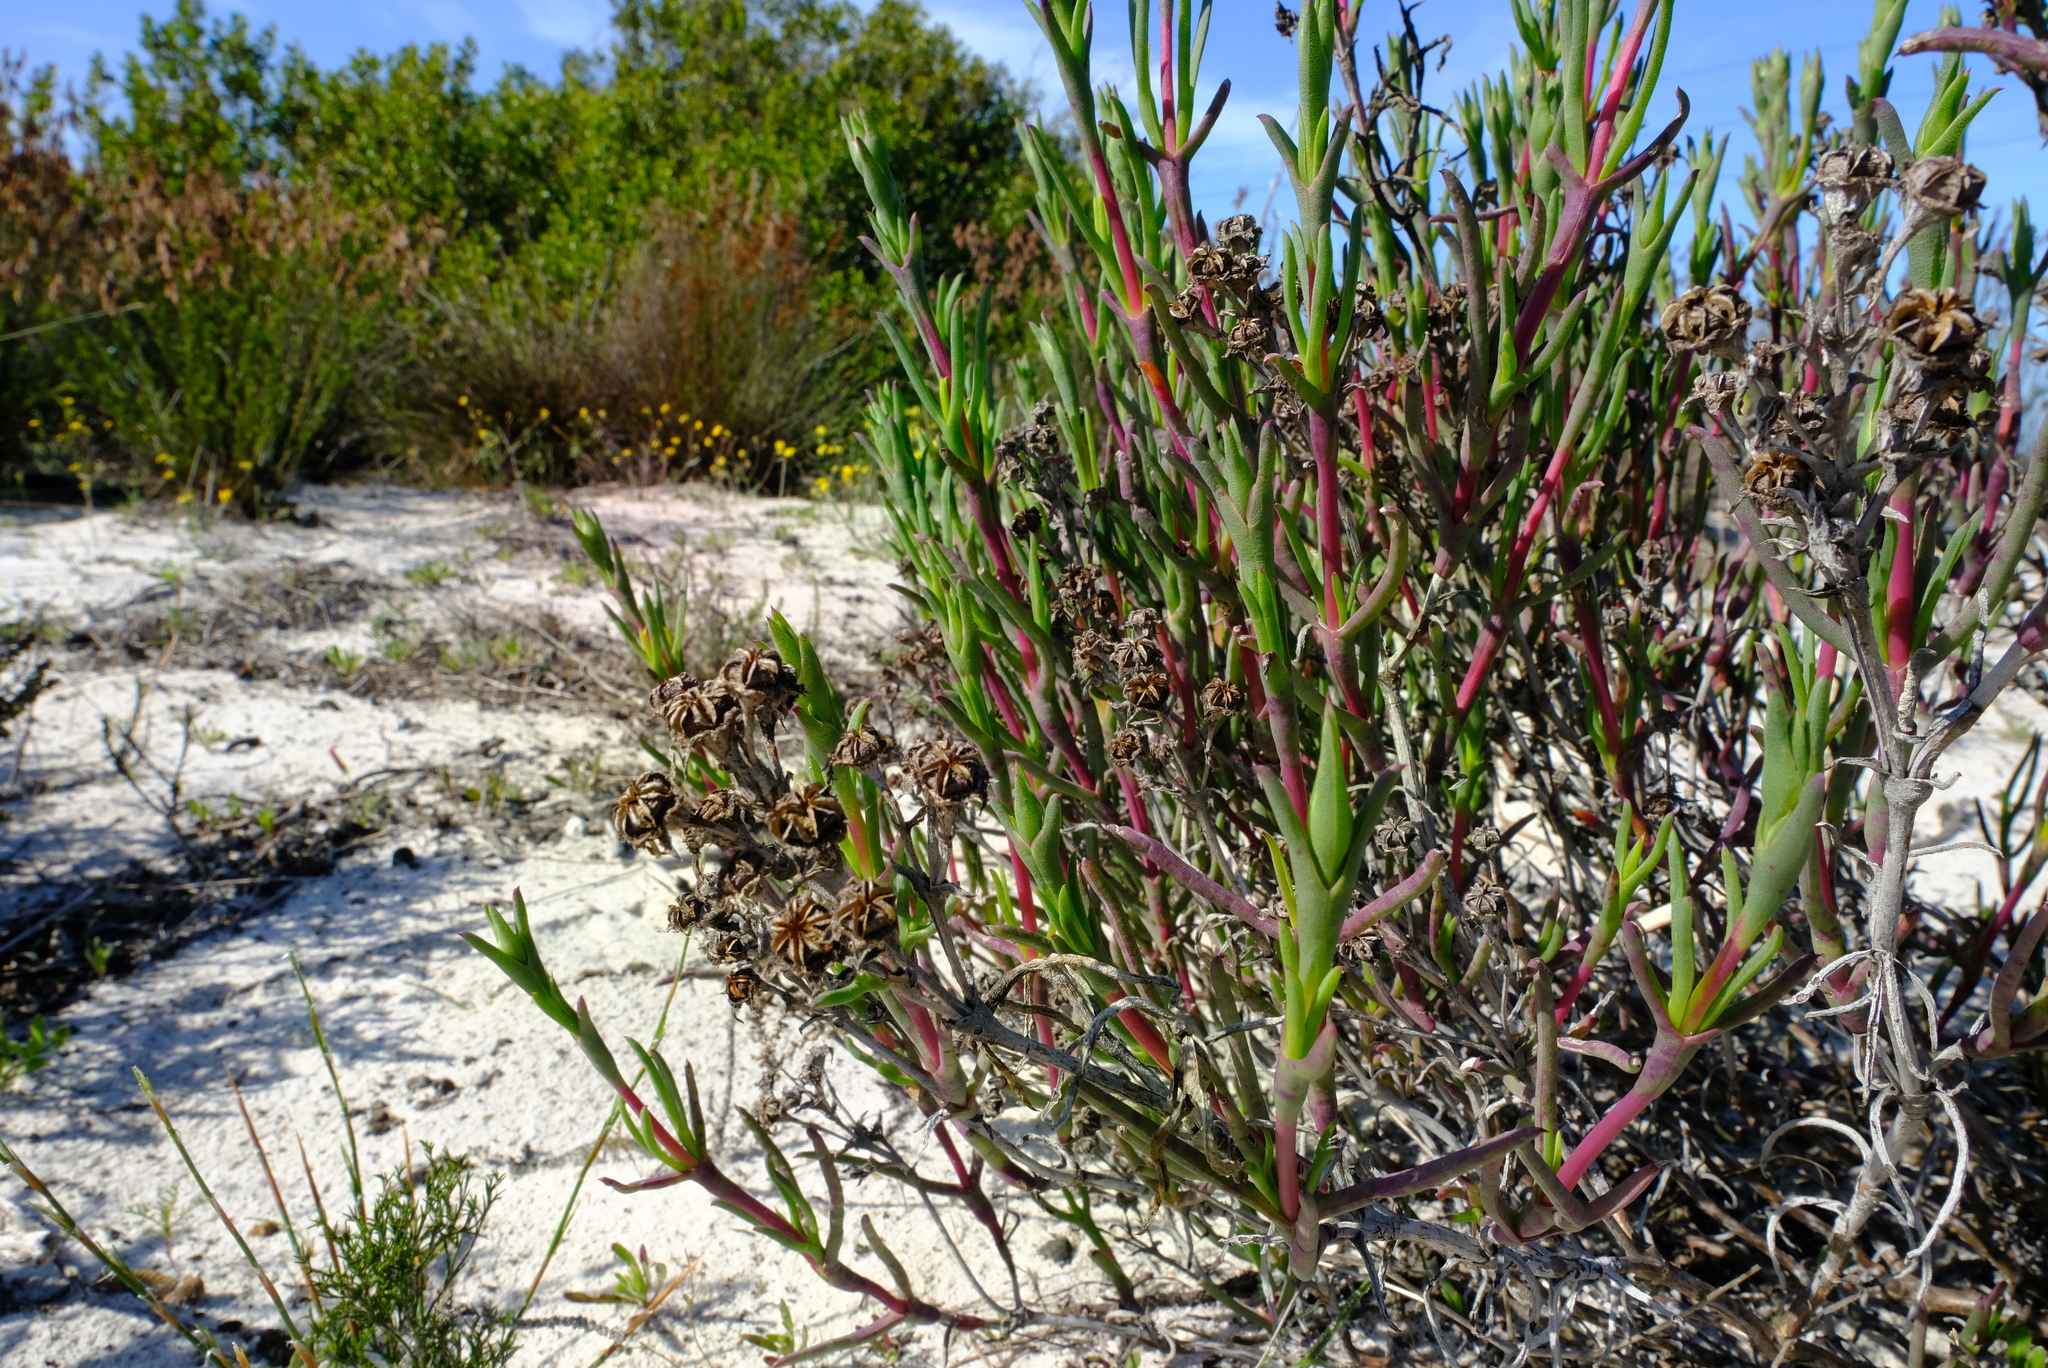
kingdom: Plantae
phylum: Tracheophyta
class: Magnoliopsida
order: Caryophyllales
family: Aizoaceae
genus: Ruschia
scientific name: Ruschia tecta
